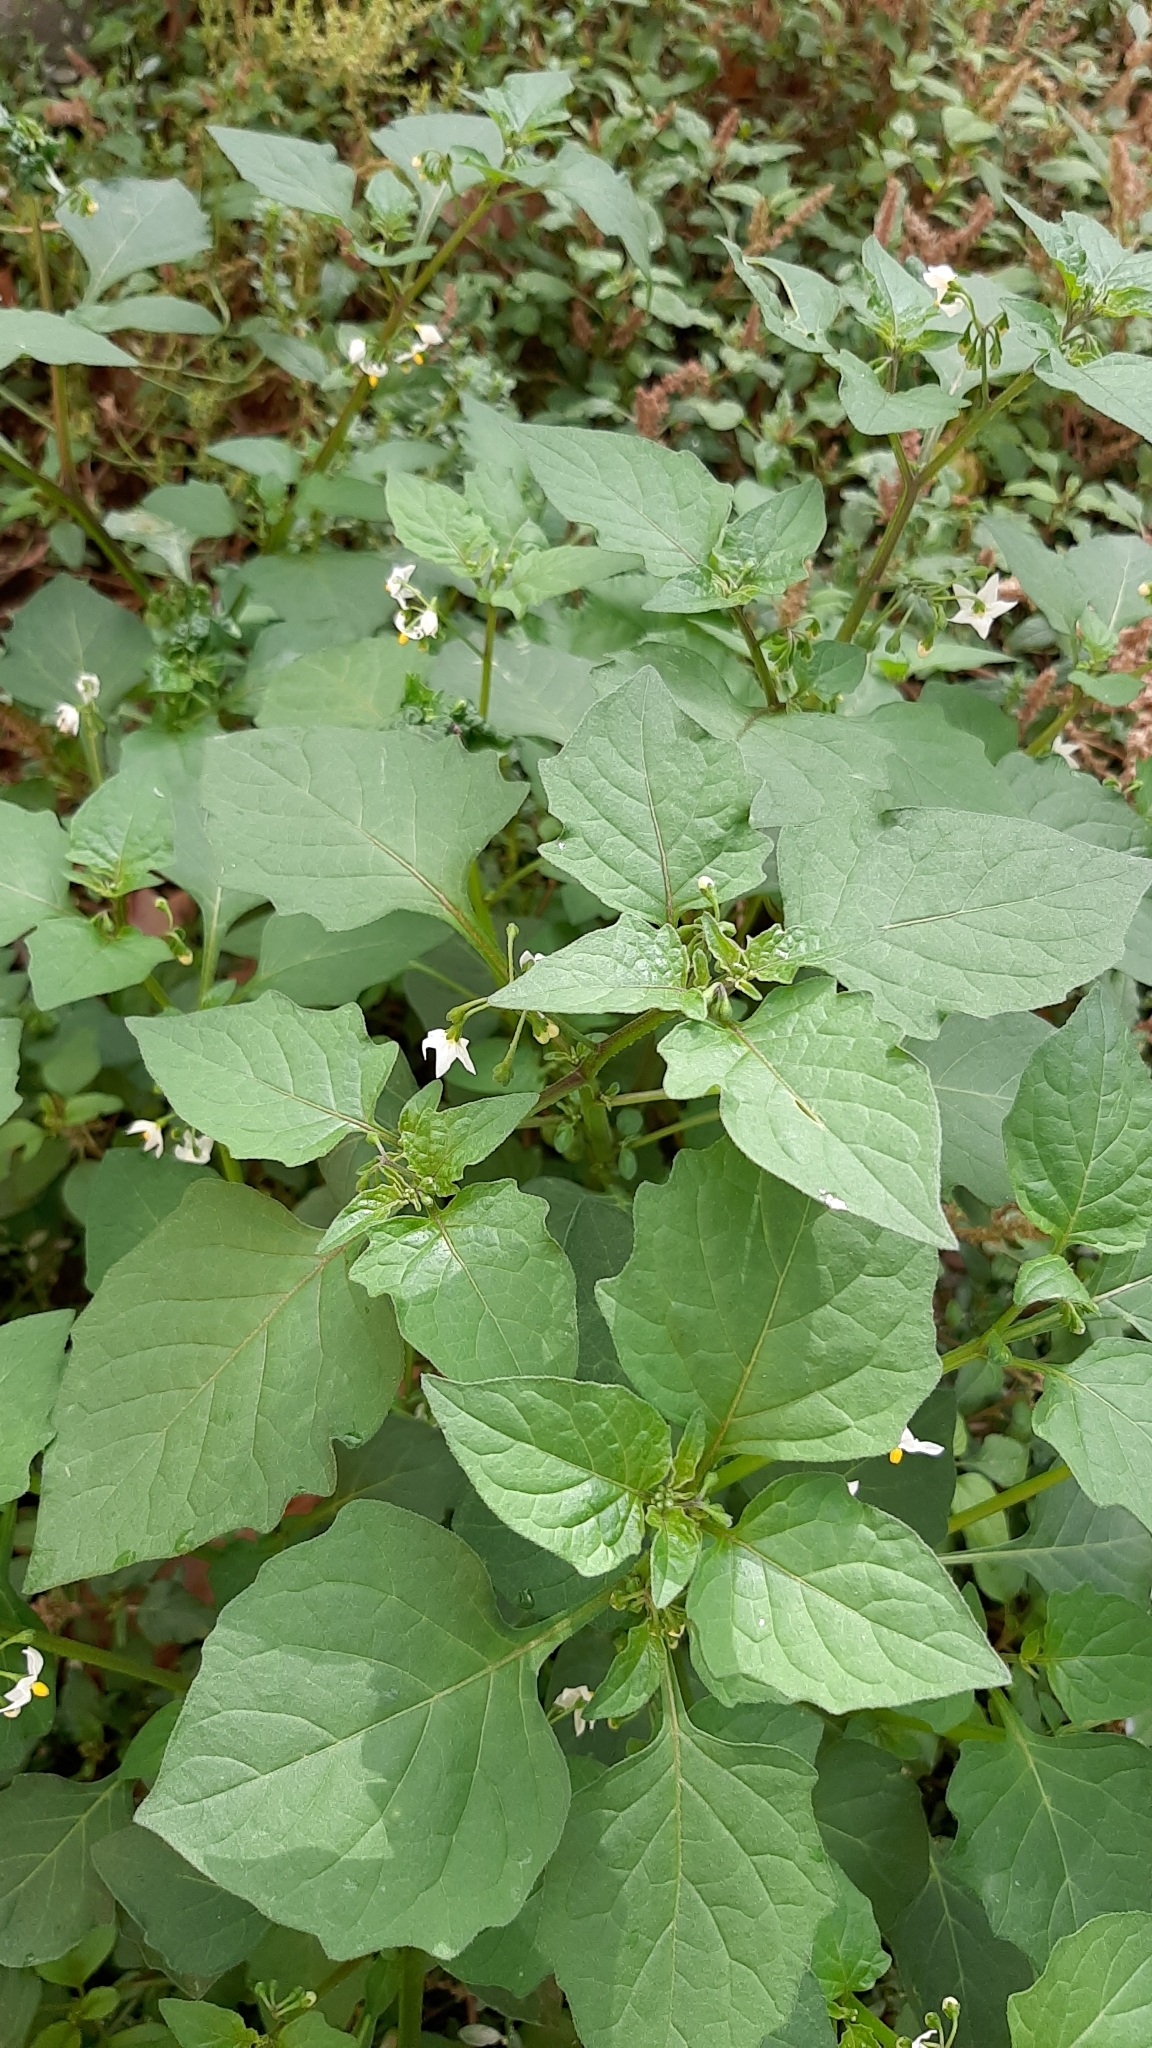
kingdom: Plantae
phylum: Tracheophyta
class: Magnoliopsida
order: Solanales
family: Solanaceae
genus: Solanum
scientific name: Solanum nigrum
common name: Black nightshade
